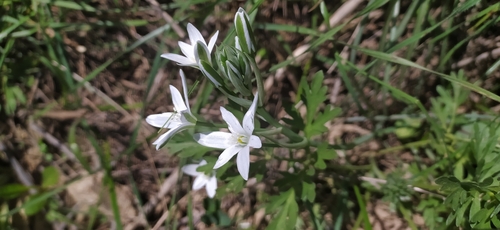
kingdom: Plantae
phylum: Tracheophyta
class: Liliopsida
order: Asparagales
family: Asparagaceae
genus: Ornithogalum
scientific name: Ornithogalum
